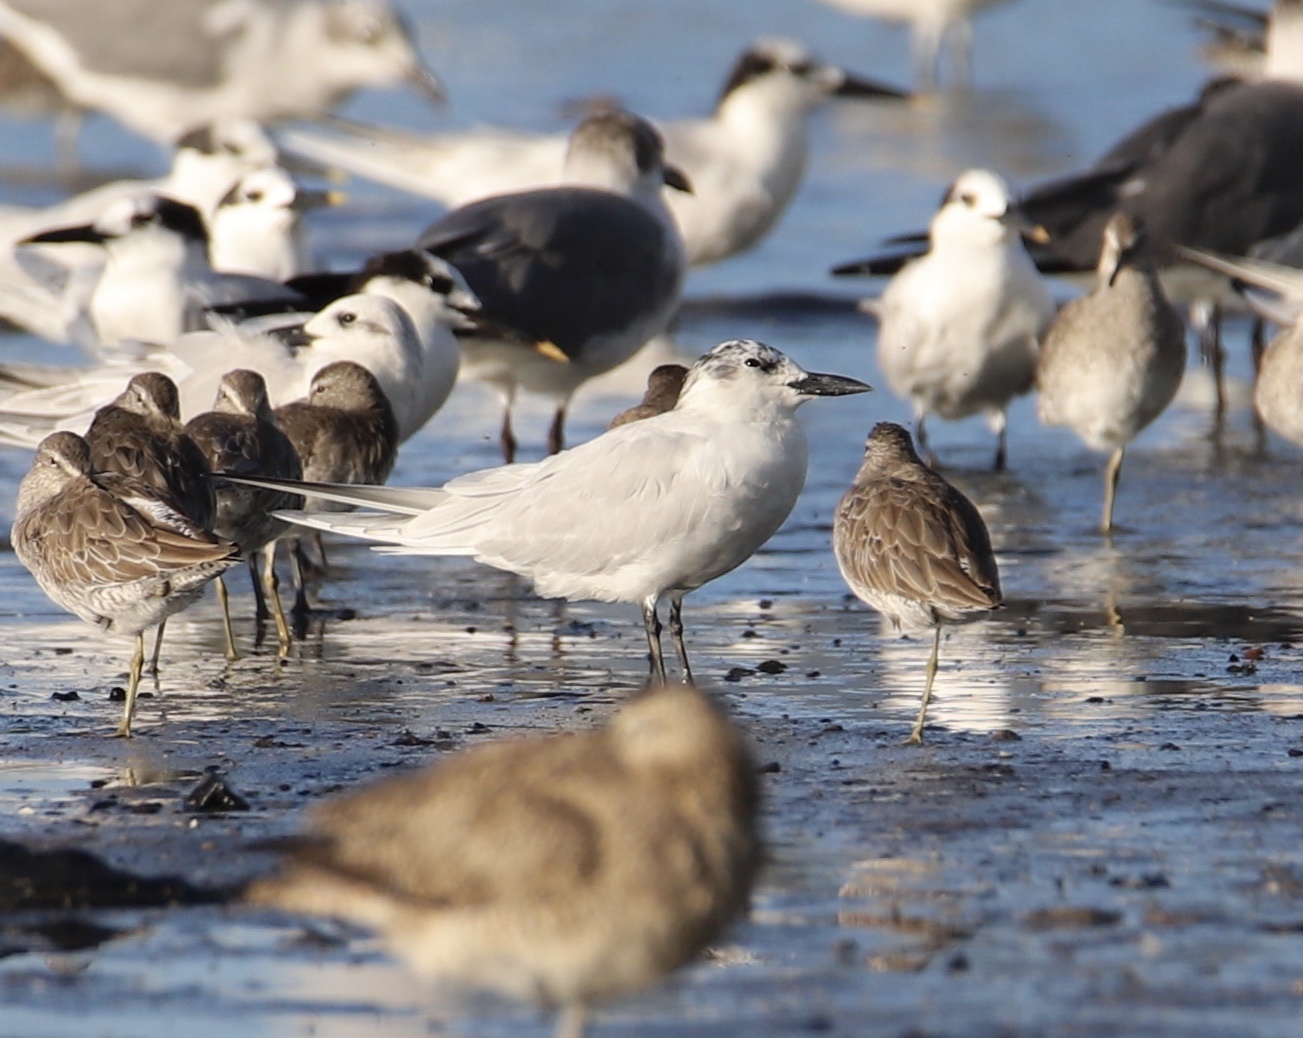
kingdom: Animalia
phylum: Chordata
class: Aves
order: Charadriiformes
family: Laridae
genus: Gelochelidon
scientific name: Gelochelidon nilotica
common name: Gull-billed tern
